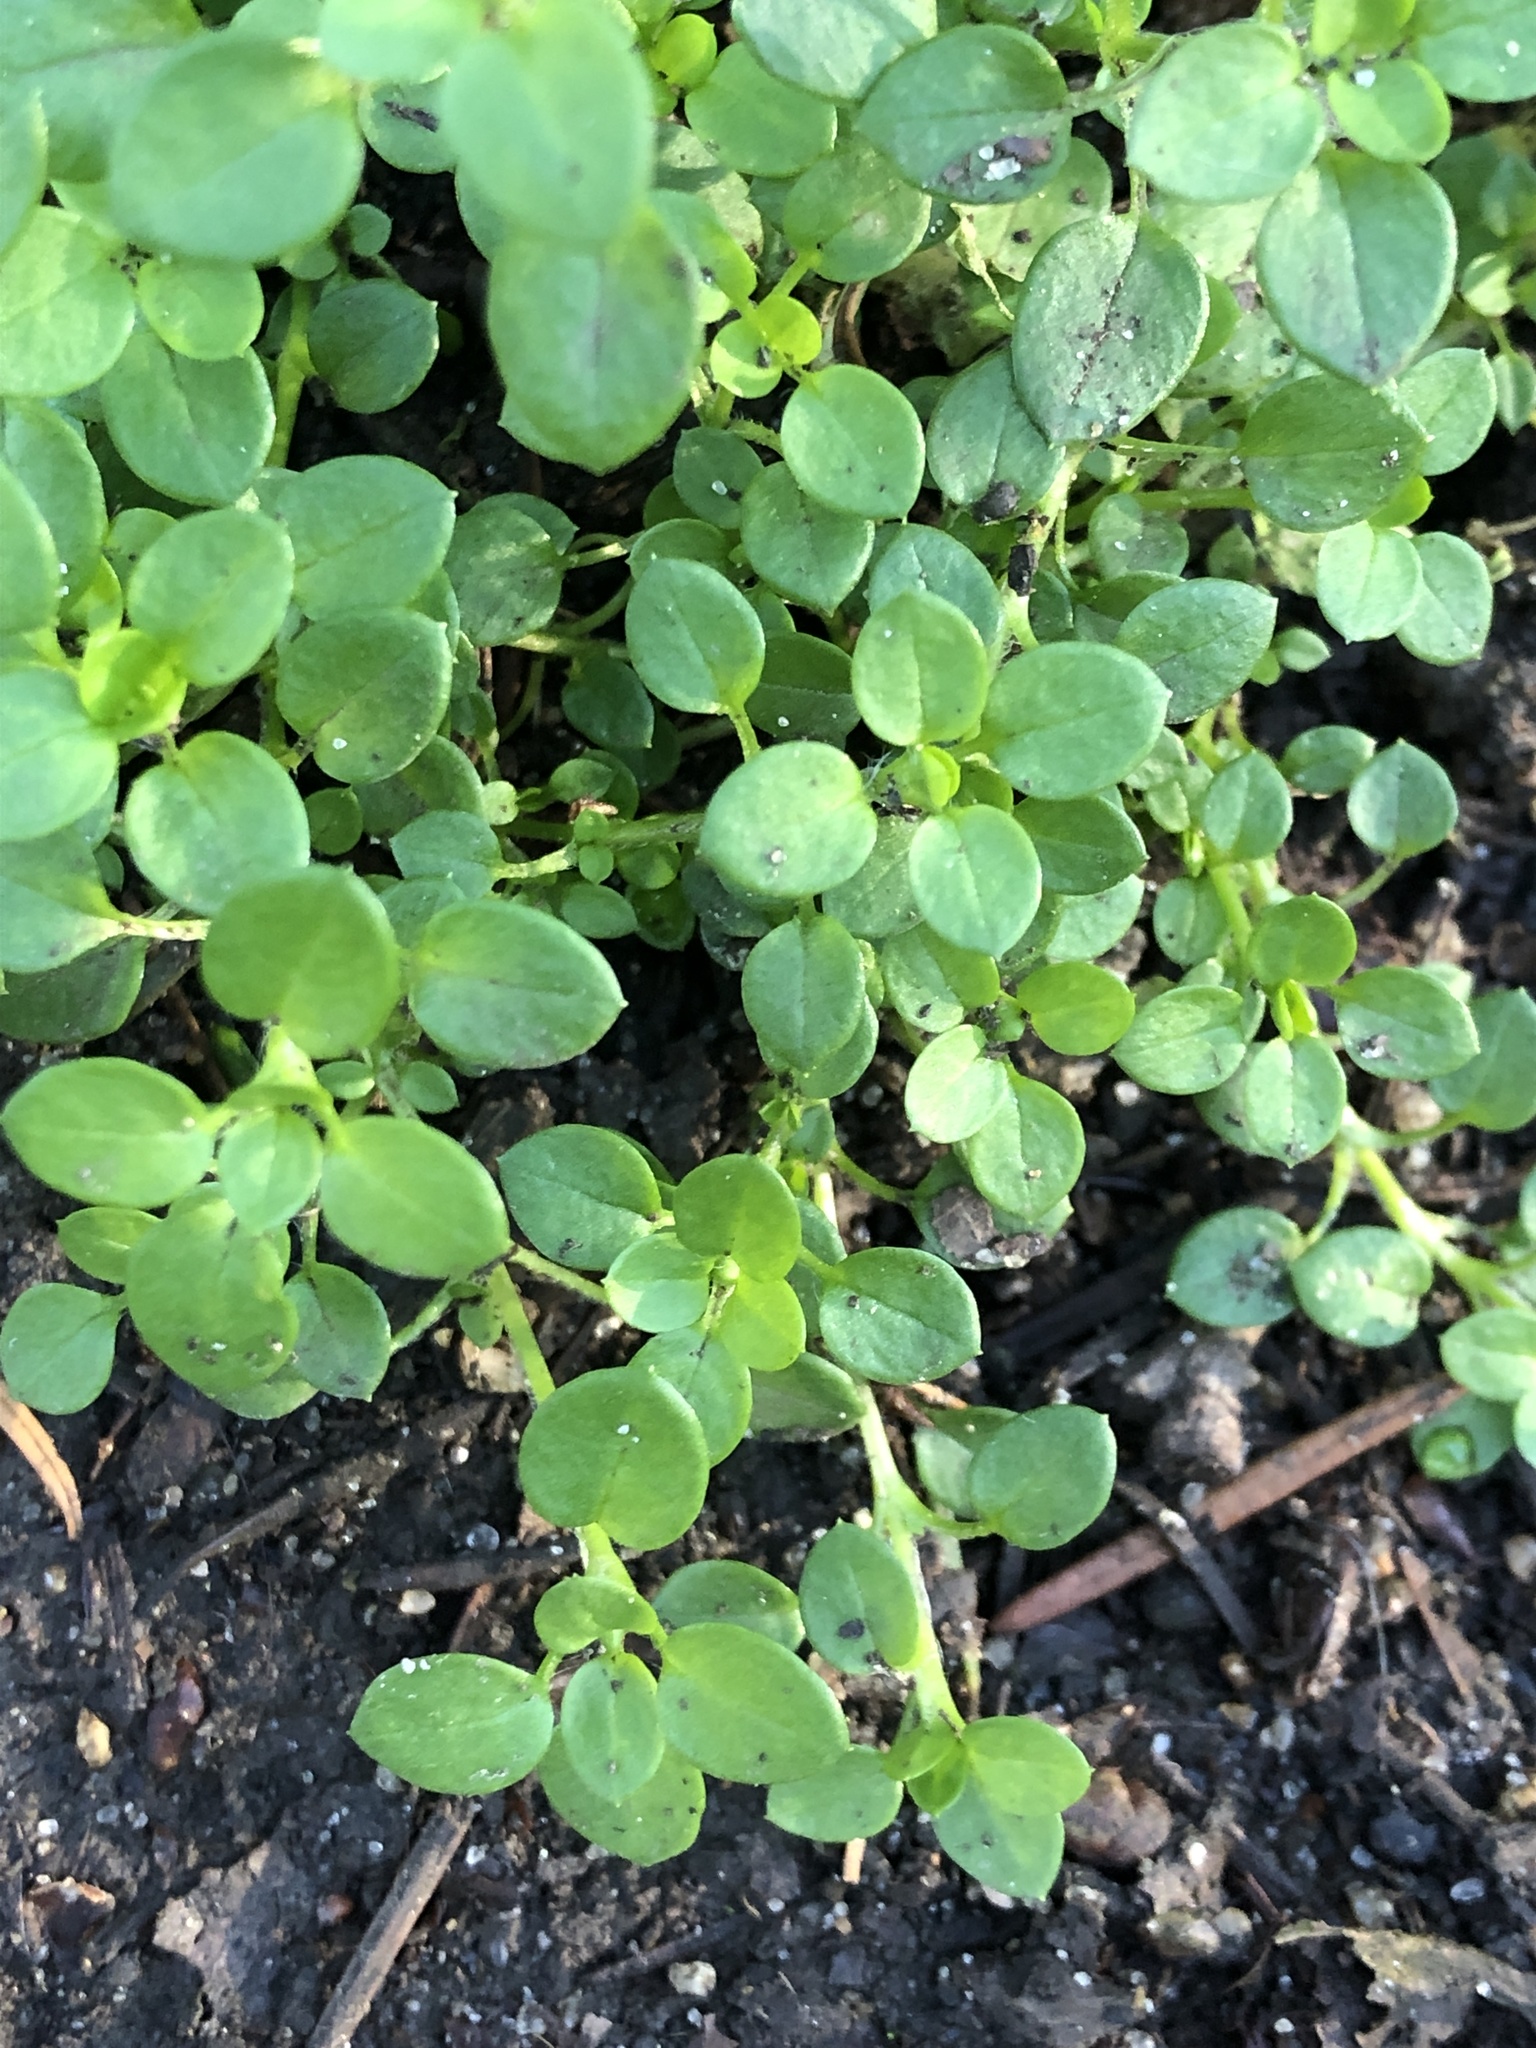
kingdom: Plantae
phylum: Tracheophyta
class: Magnoliopsida
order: Caryophyllales
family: Caryophyllaceae
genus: Stellaria
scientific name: Stellaria media
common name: Common chickweed
